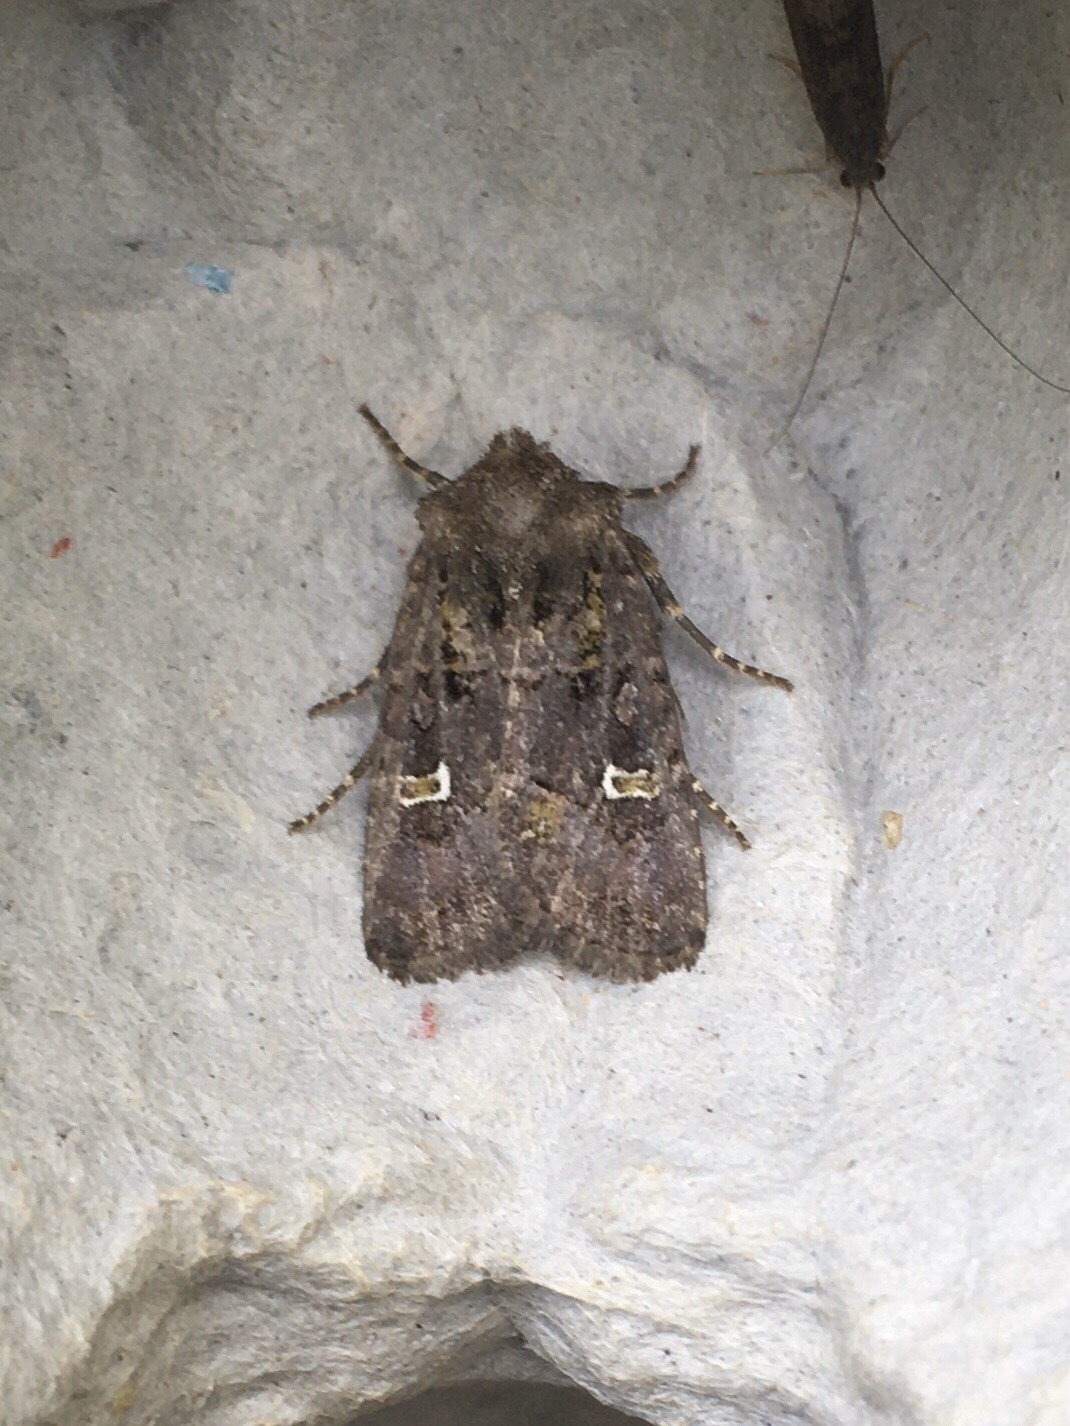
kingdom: Animalia
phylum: Arthropoda
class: Insecta
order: Lepidoptera
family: Noctuidae
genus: Lacinipolia
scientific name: Lacinipolia renigera
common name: Kidney-spotted minor
